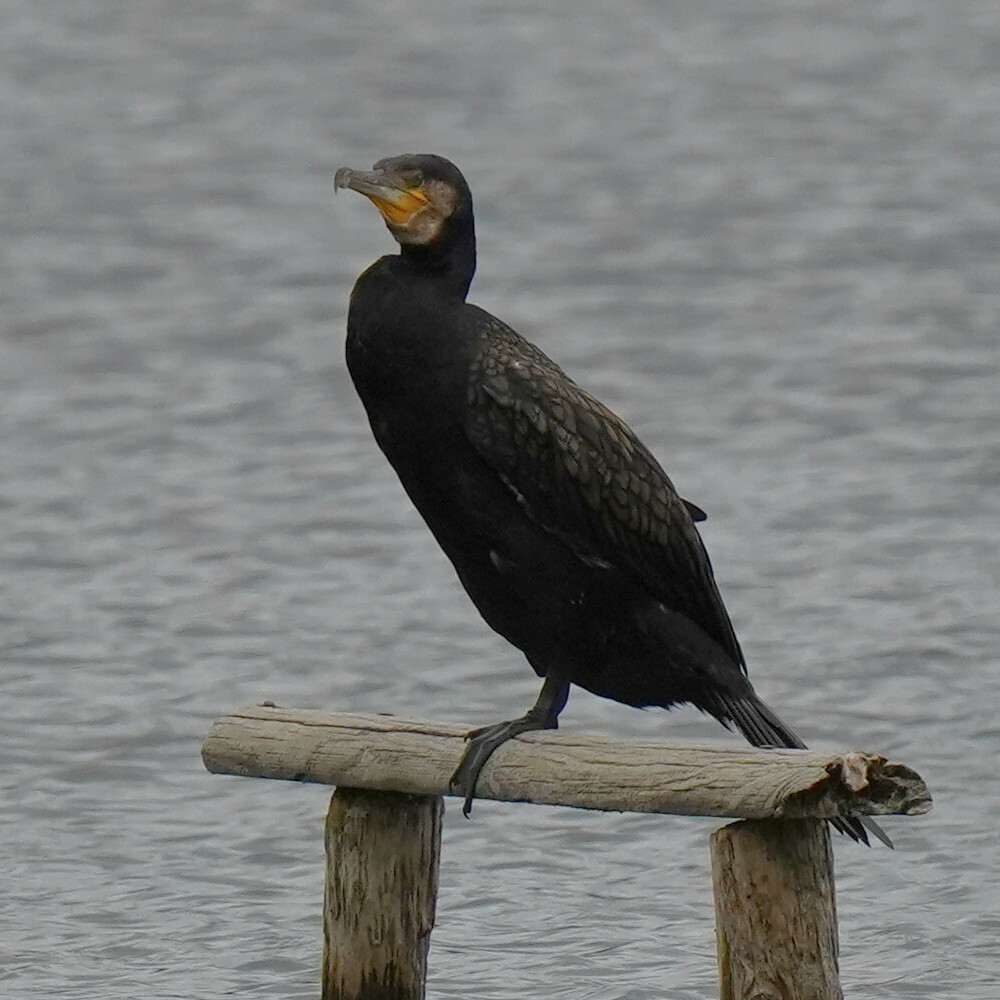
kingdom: Animalia
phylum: Chordata
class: Aves
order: Suliformes
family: Phalacrocoracidae
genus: Phalacrocorax
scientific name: Phalacrocorax carbo
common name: Great cormorant
